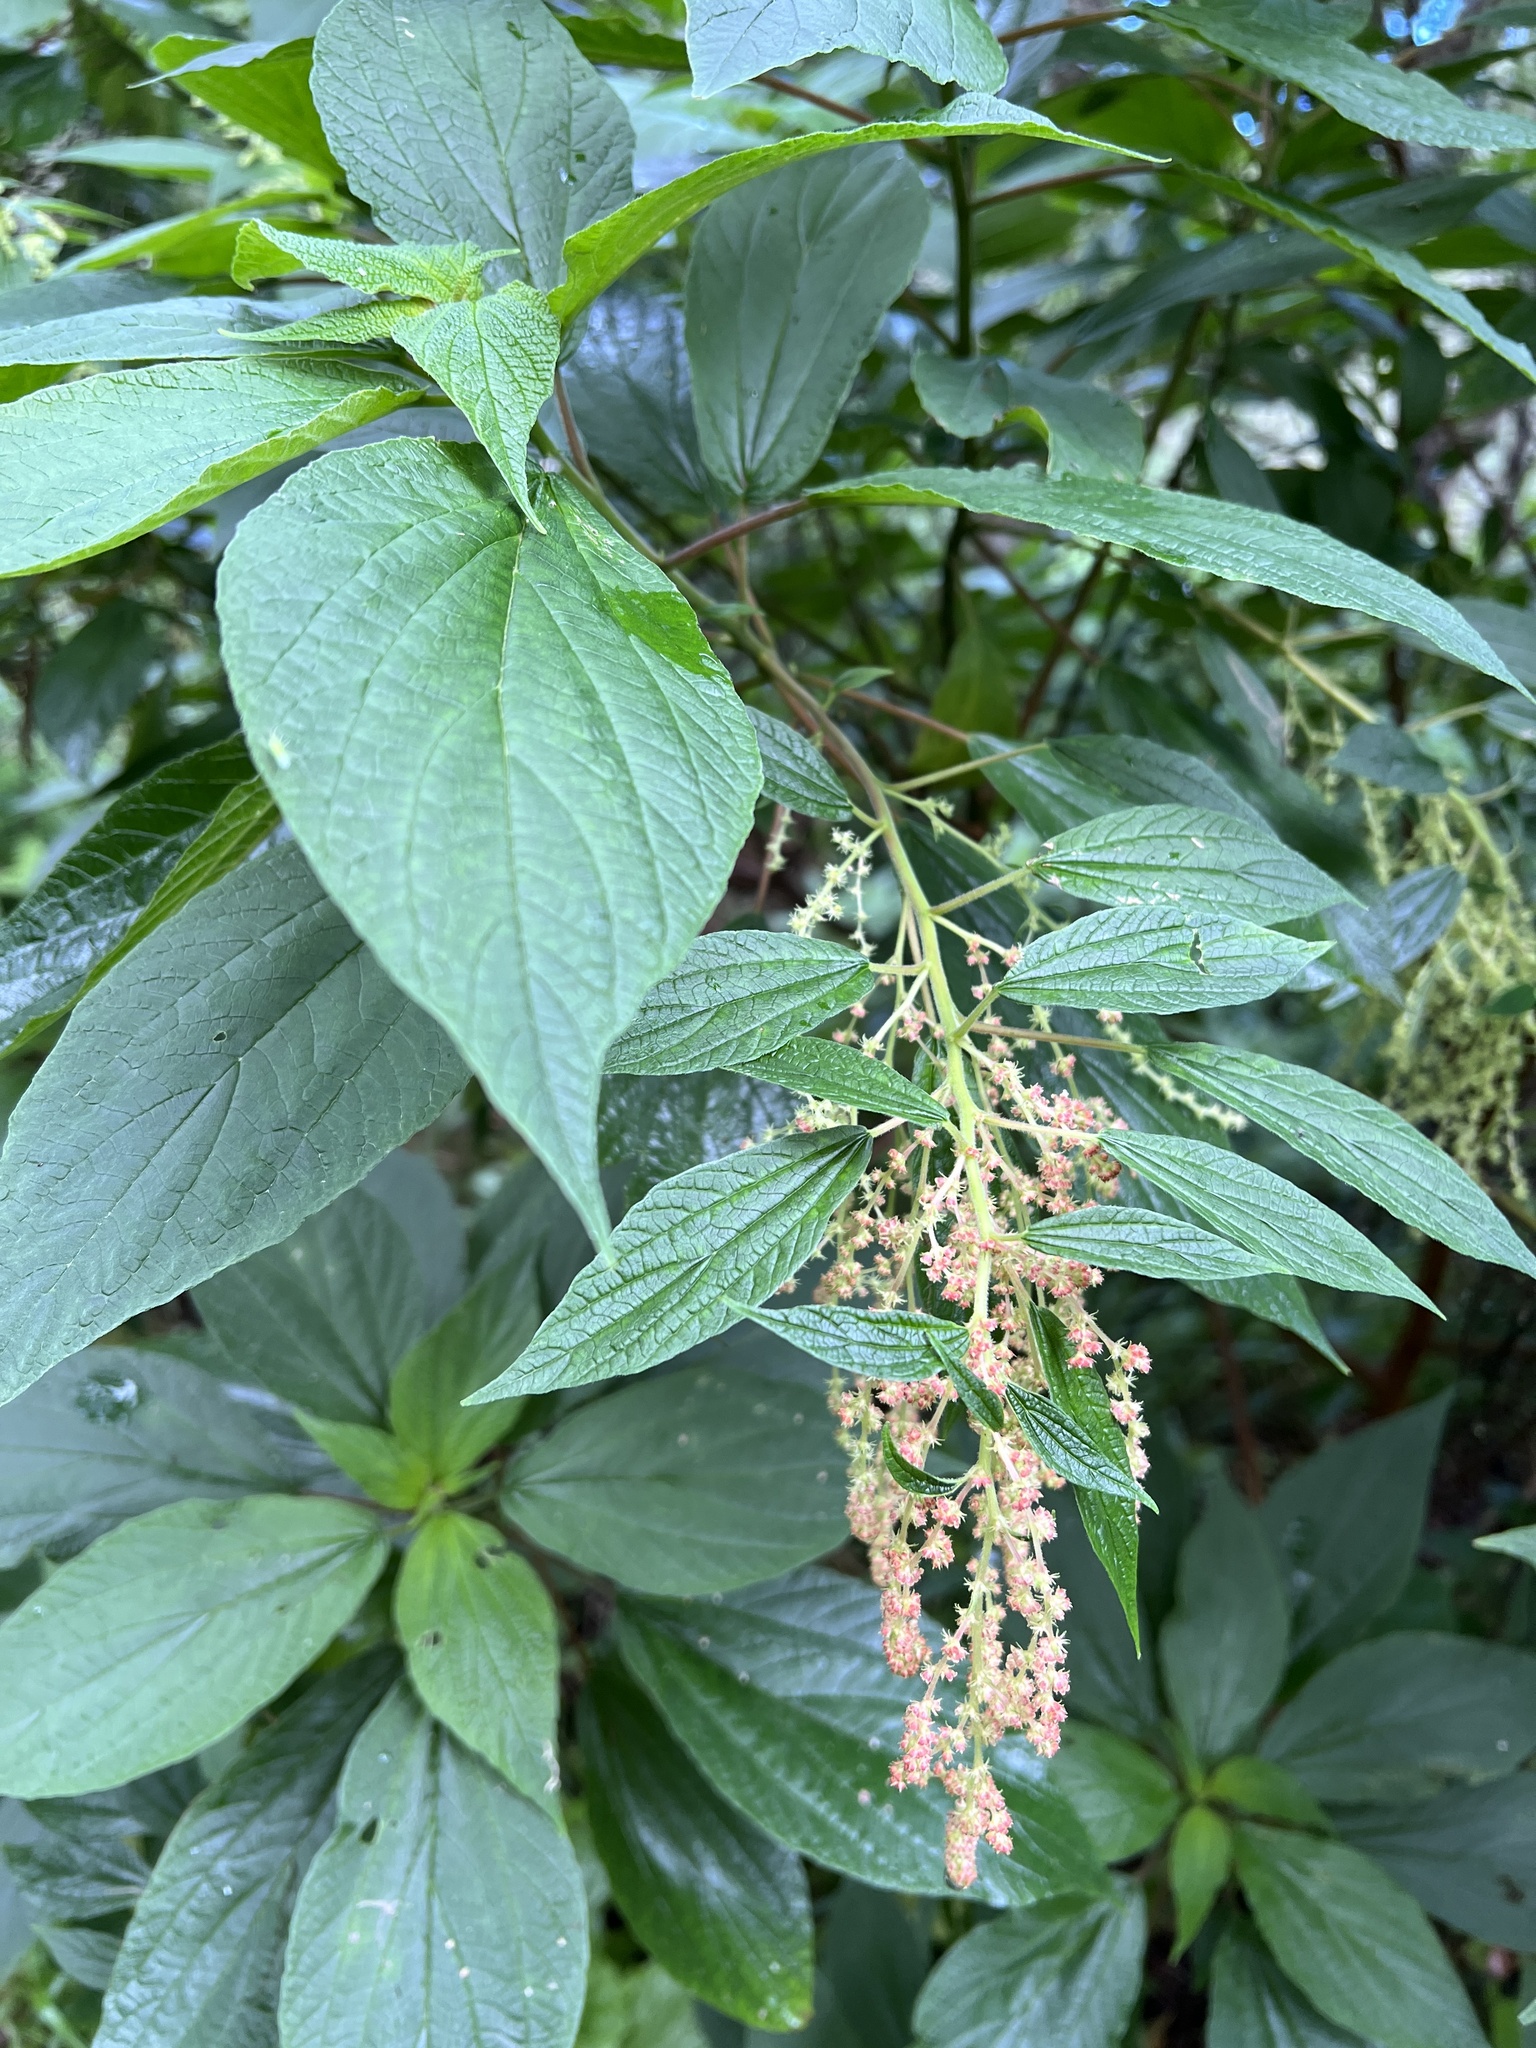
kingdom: Plantae
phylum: Tracheophyta
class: Magnoliopsida
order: Rosales
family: Urticaceae
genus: Gesnouinia
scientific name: Gesnouinia arborea
